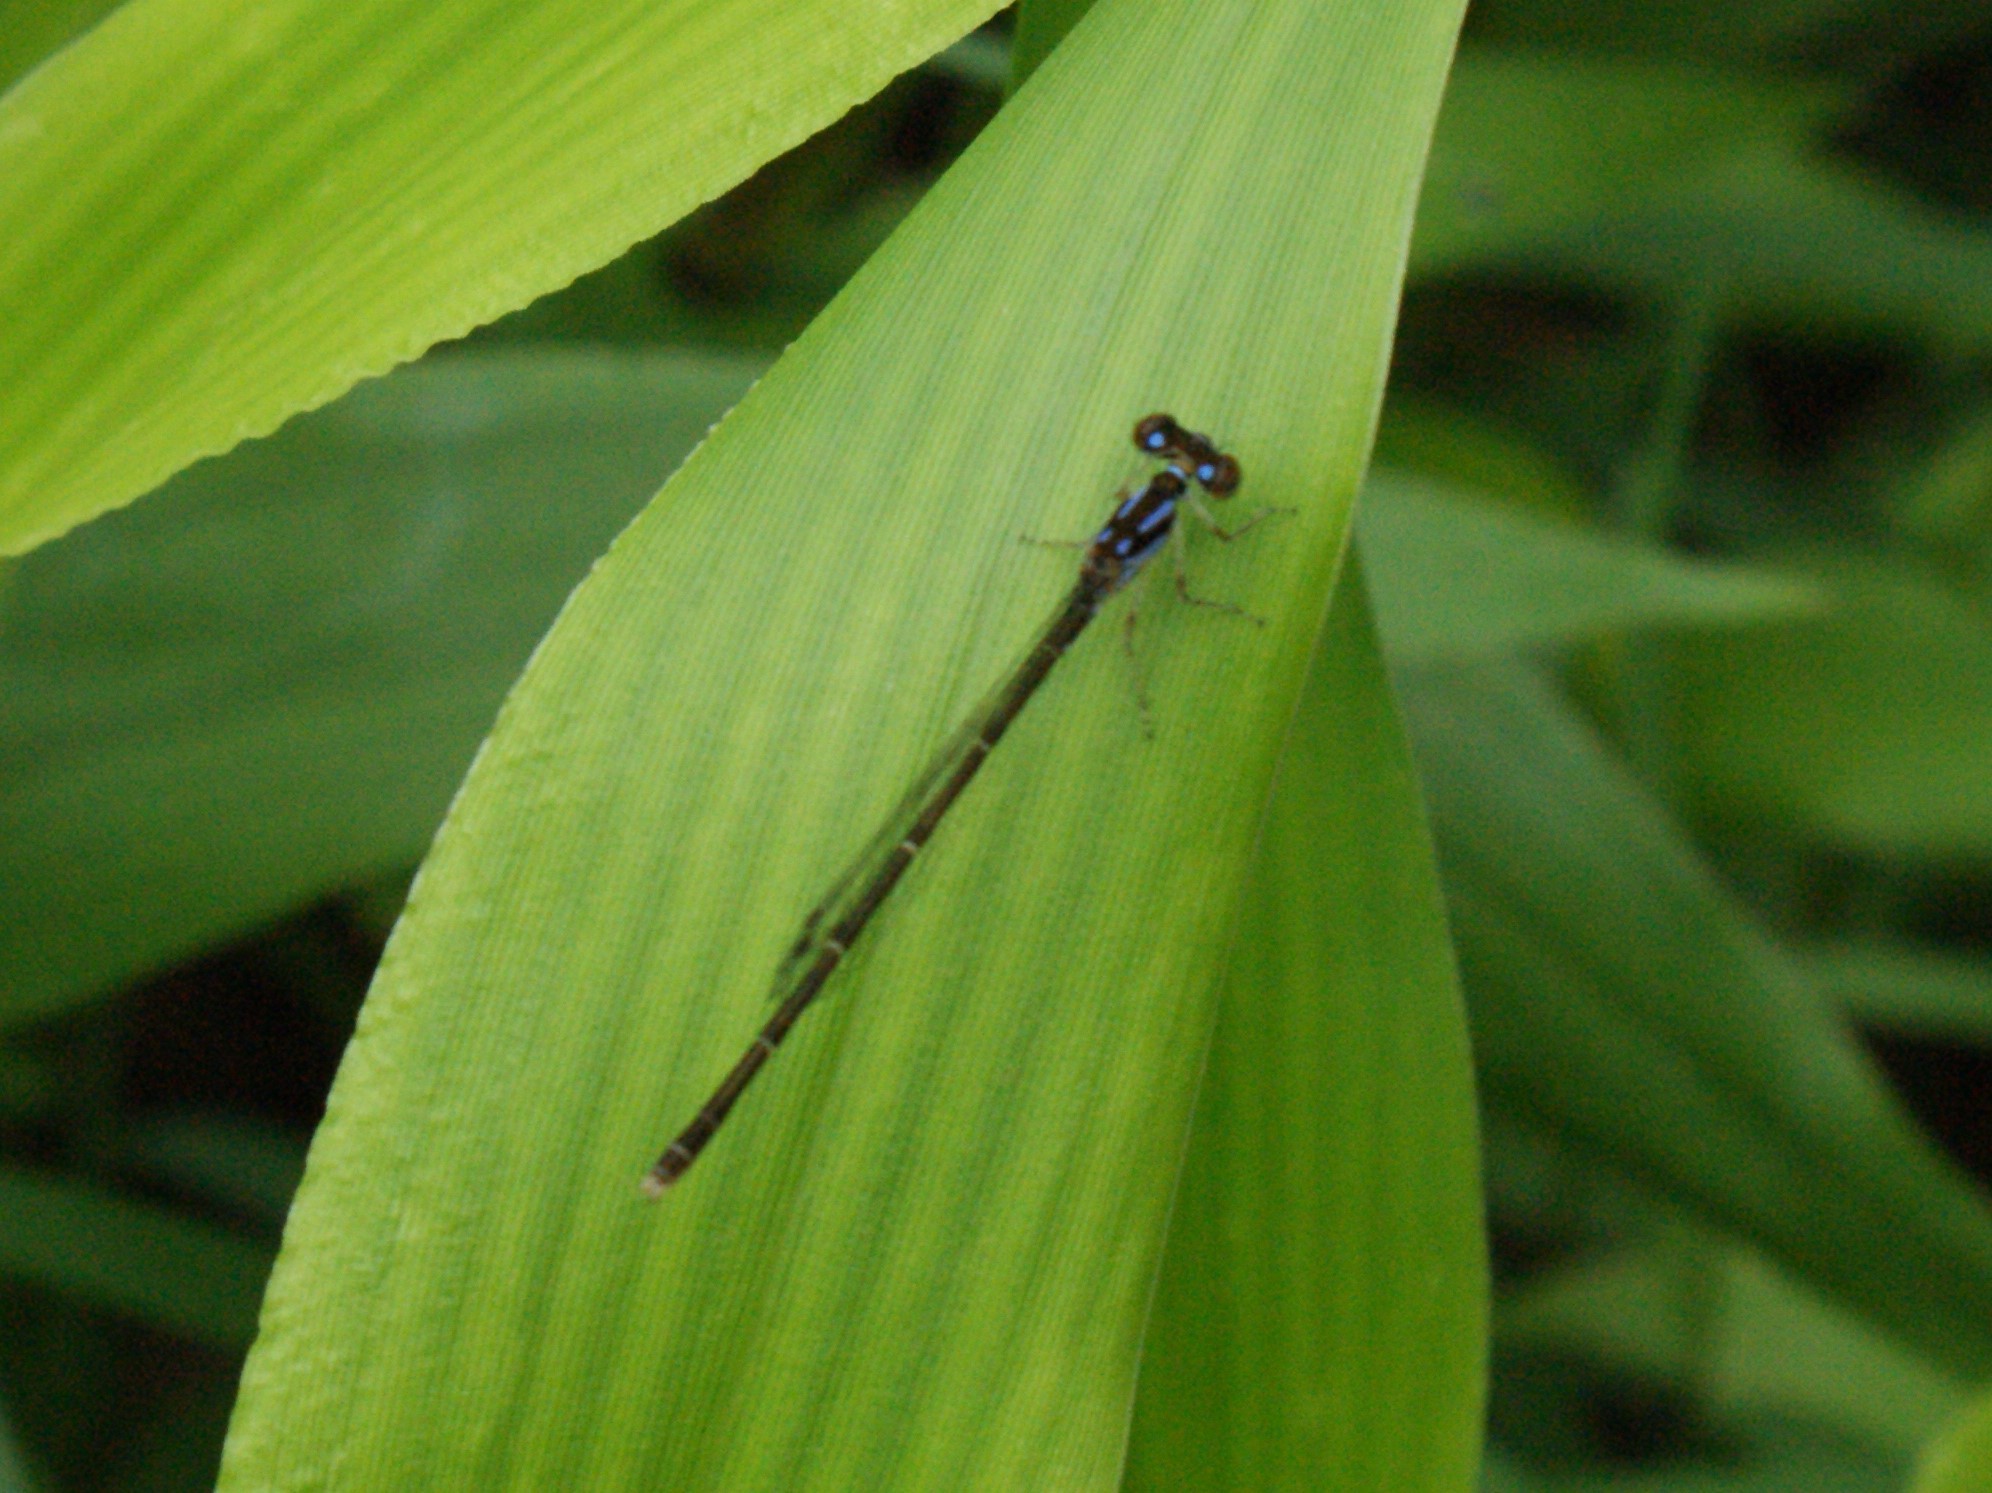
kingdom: Animalia
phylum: Arthropoda
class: Insecta
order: Odonata
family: Coenagrionidae
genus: Ischnura
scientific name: Ischnura posita
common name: Fragile forktail
